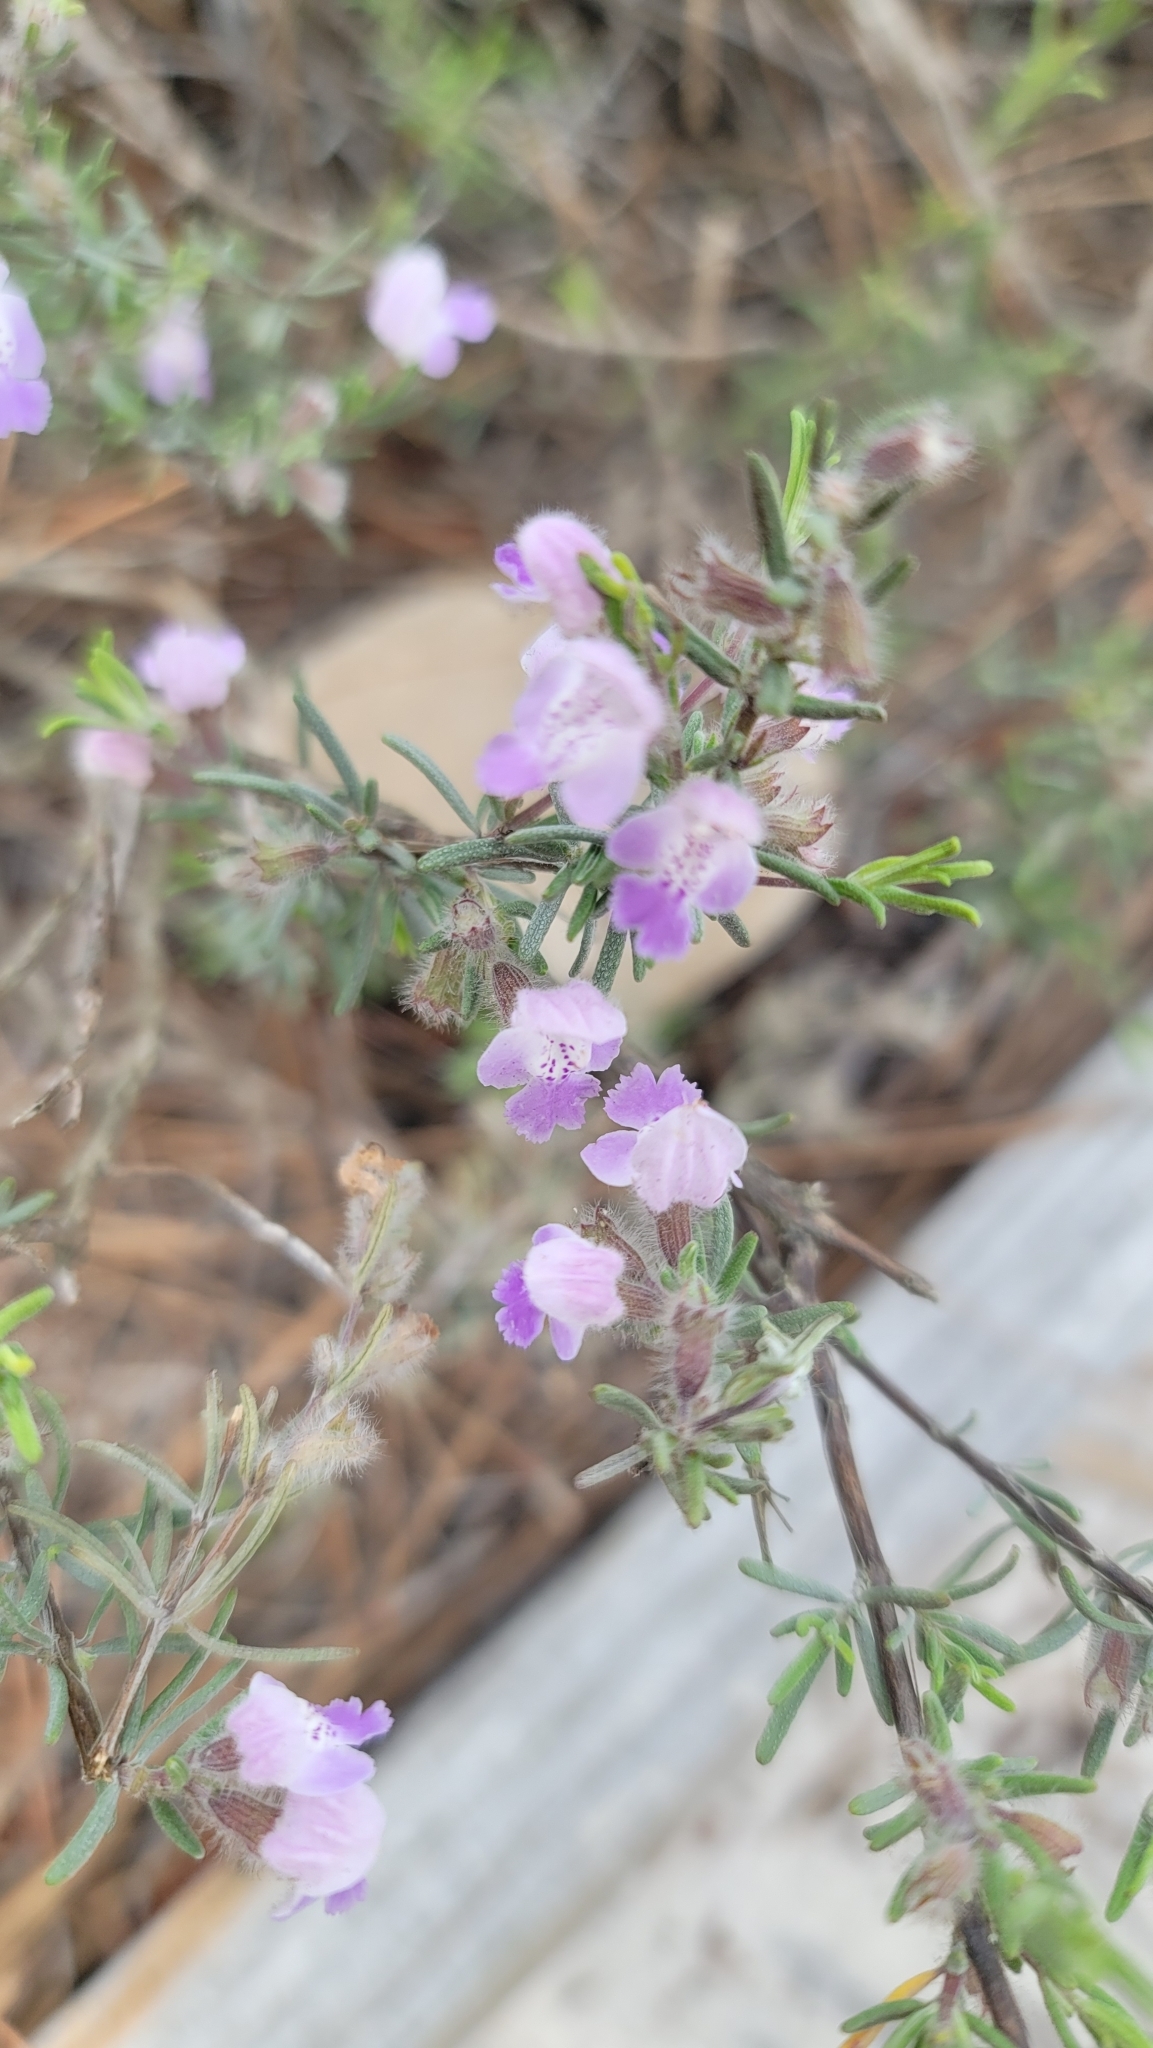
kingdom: Plantae
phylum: Tracheophyta
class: Magnoliopsida
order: Lamiales
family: Lamiaceae
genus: Conradina
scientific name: Conradina canescens
